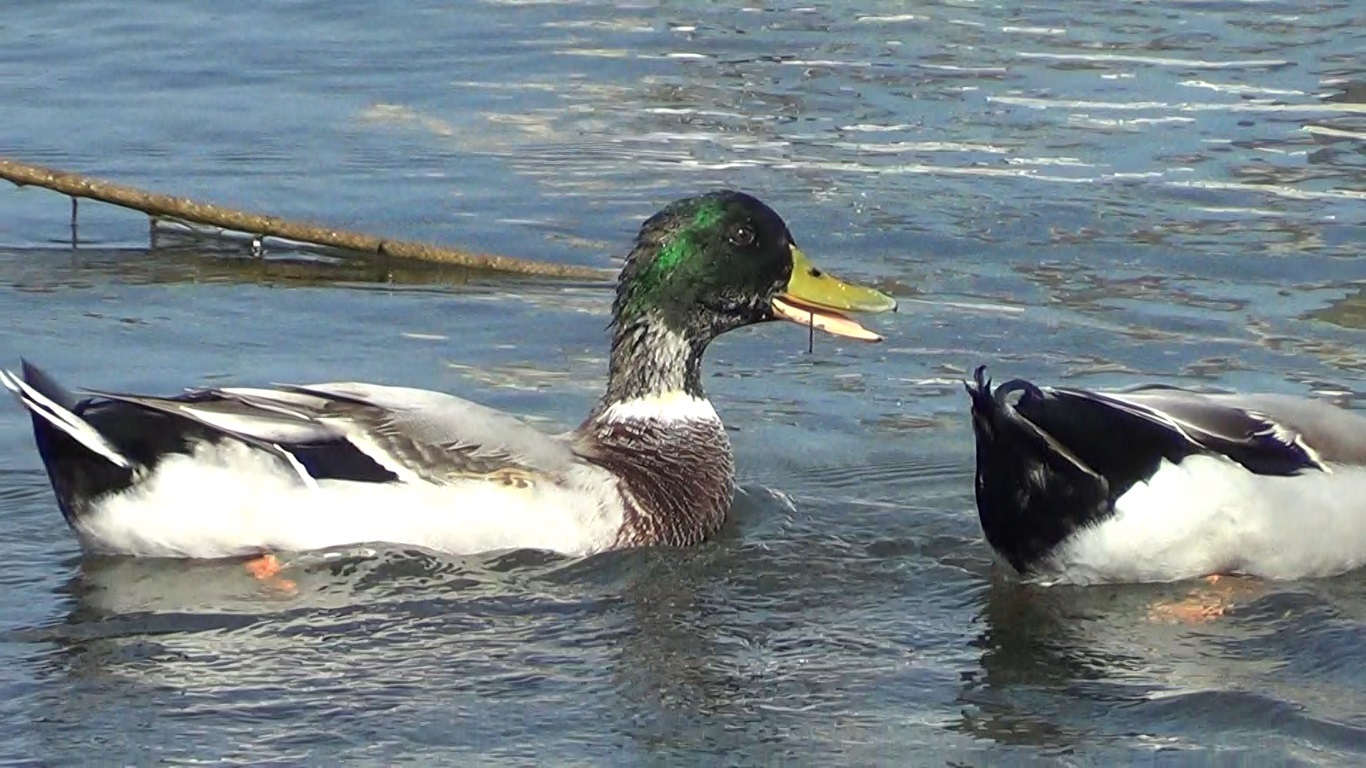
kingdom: Animalia
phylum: Chordata
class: Aves
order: Anseriformes
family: Anatidae
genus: Anas
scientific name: Anas platyrhynchos
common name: Mallard
